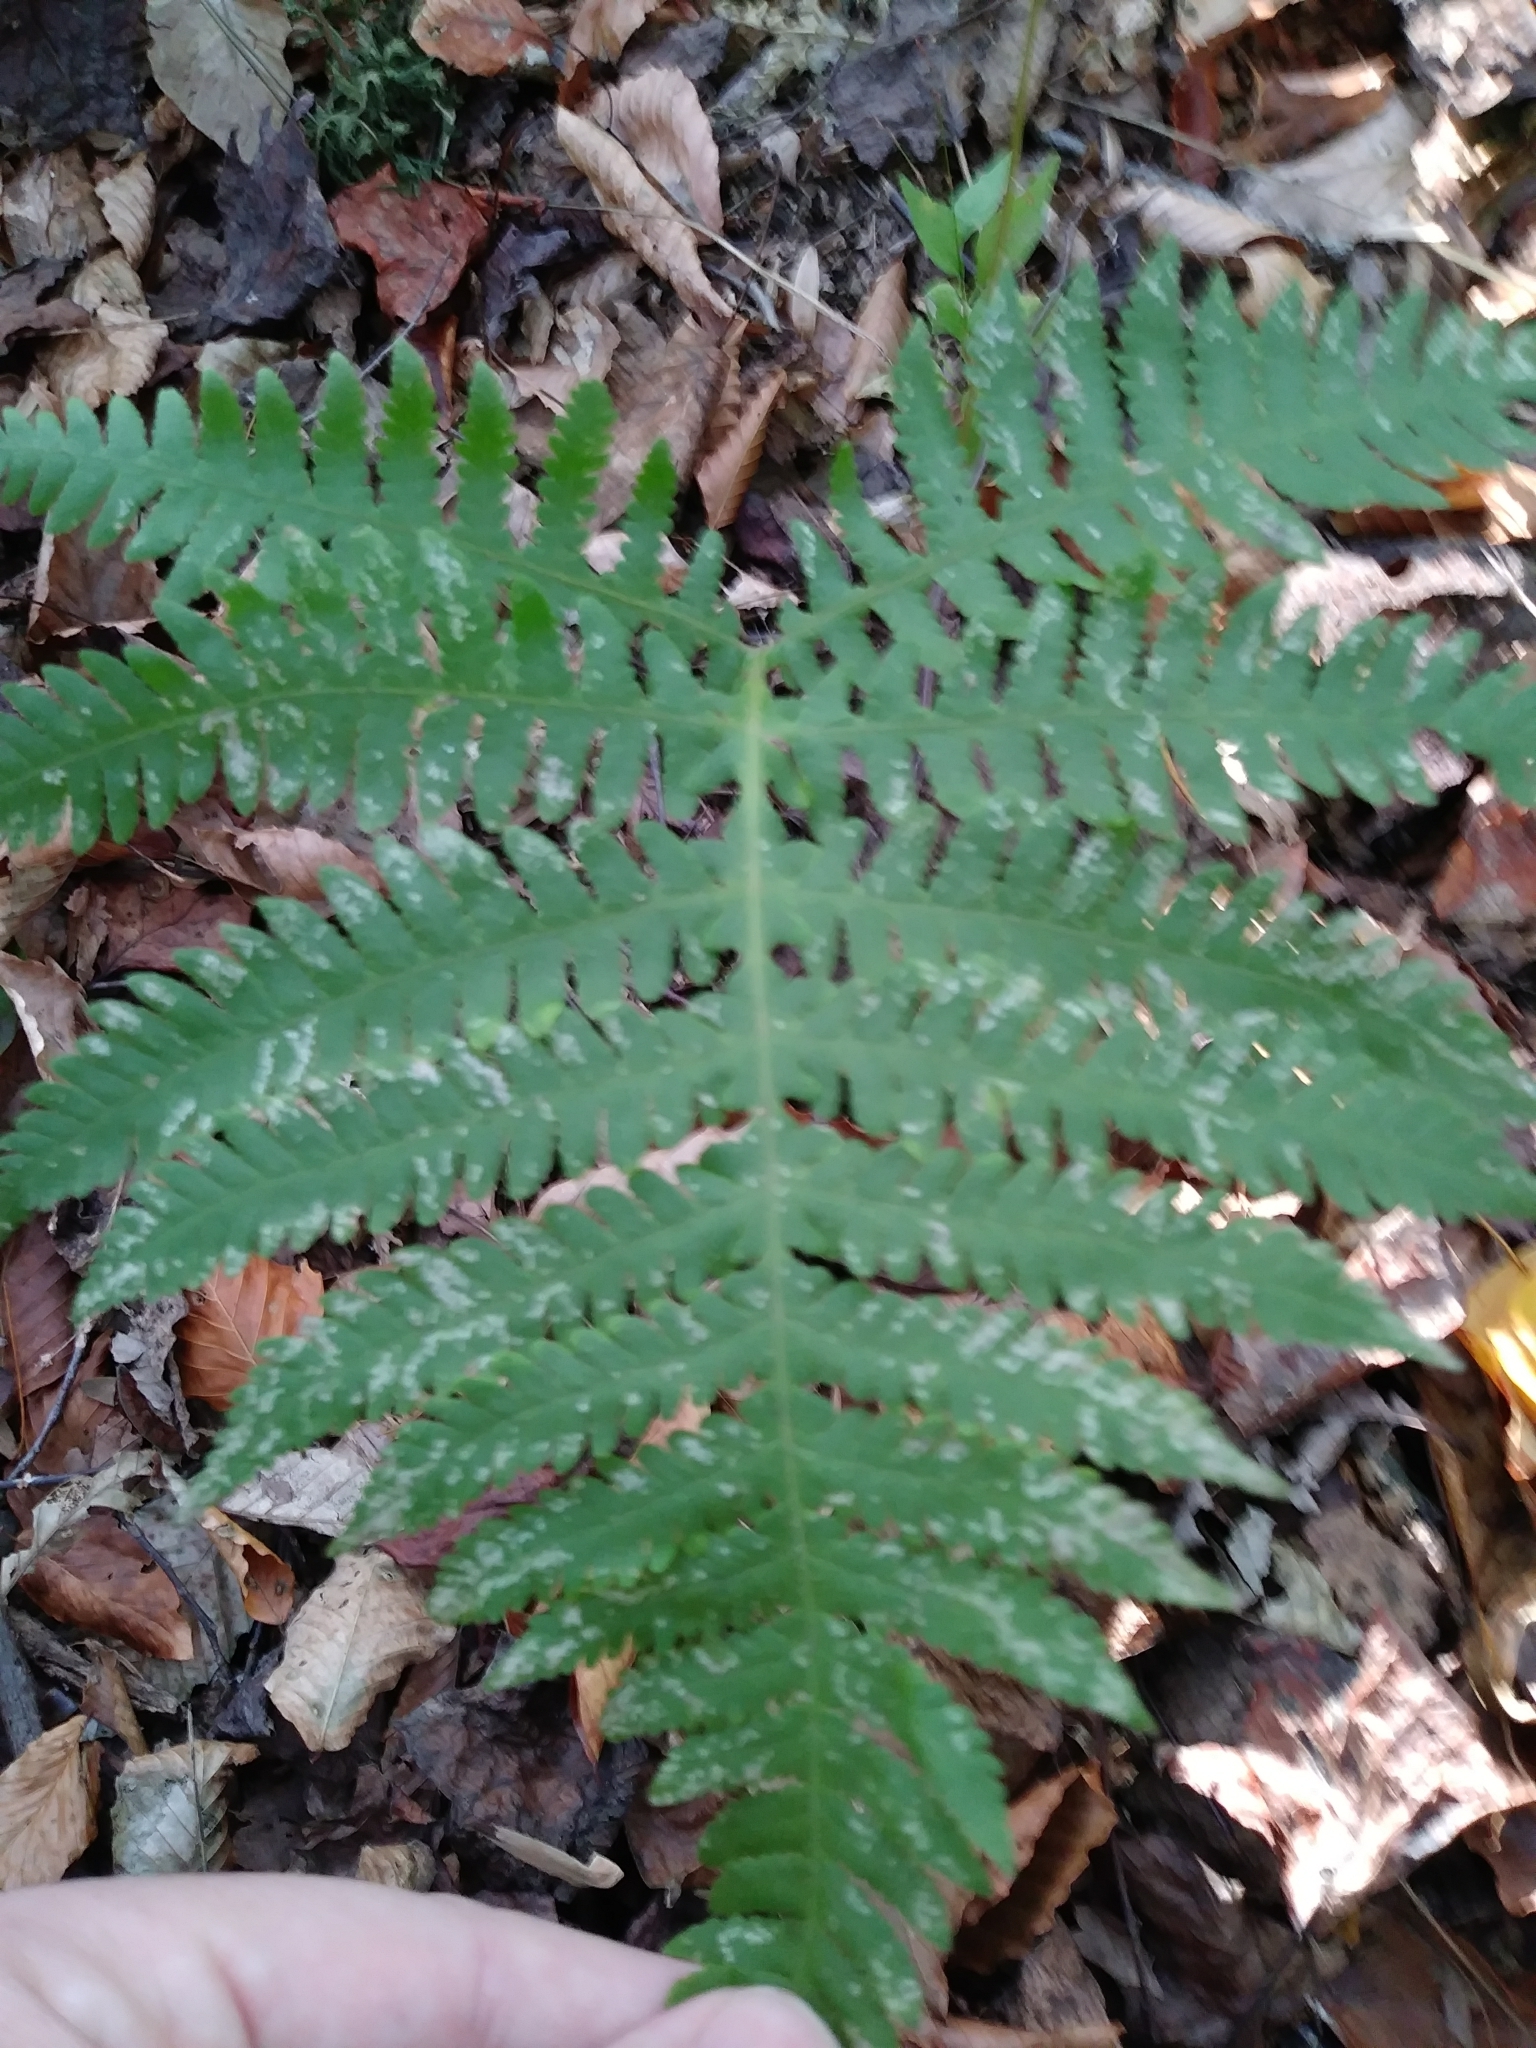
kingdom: Plantae
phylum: Tracheophyta
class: Polypodiopsida
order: Polypodiales
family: Thelypteridaceae
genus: Phegopteris
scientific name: Phegopteris hexagonoptera
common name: Broad beech fern
